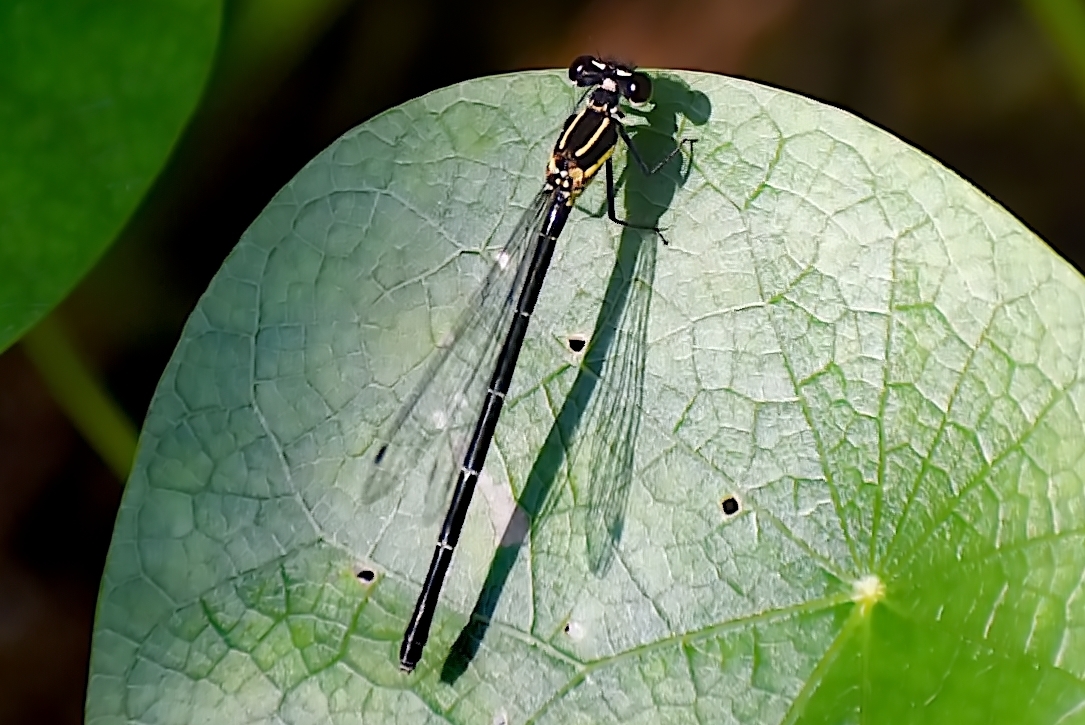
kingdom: Animalia
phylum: Arthropoda
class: Insecta
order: Odonata
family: Platycnemididae
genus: Onychargia
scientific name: Onychargia atrocyana
